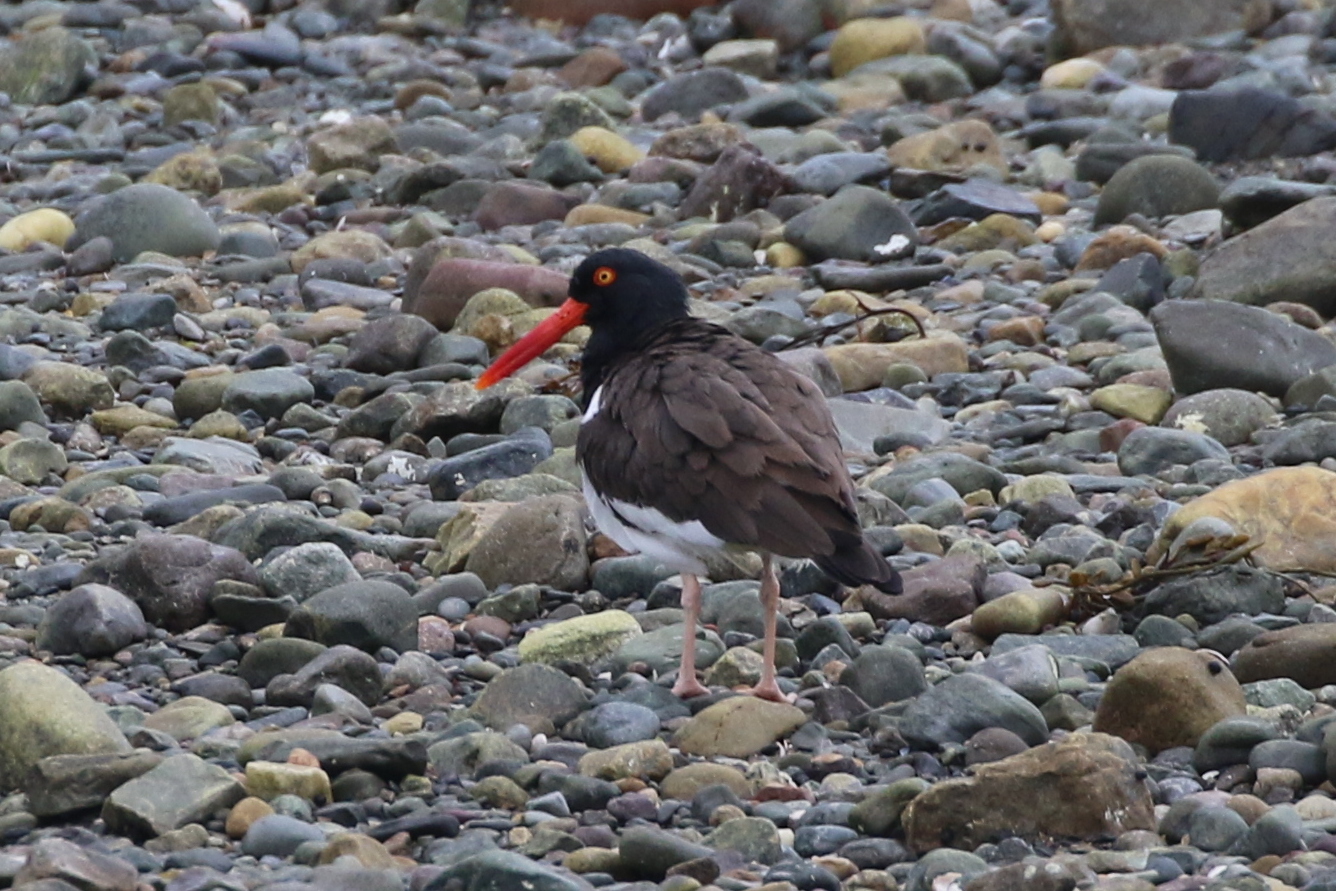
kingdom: Animalia
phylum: Chordata
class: Aves
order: Charadriiformes
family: Haematopodidae
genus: Haematopus
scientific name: Haematopus palliatus
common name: American oystercatcher
